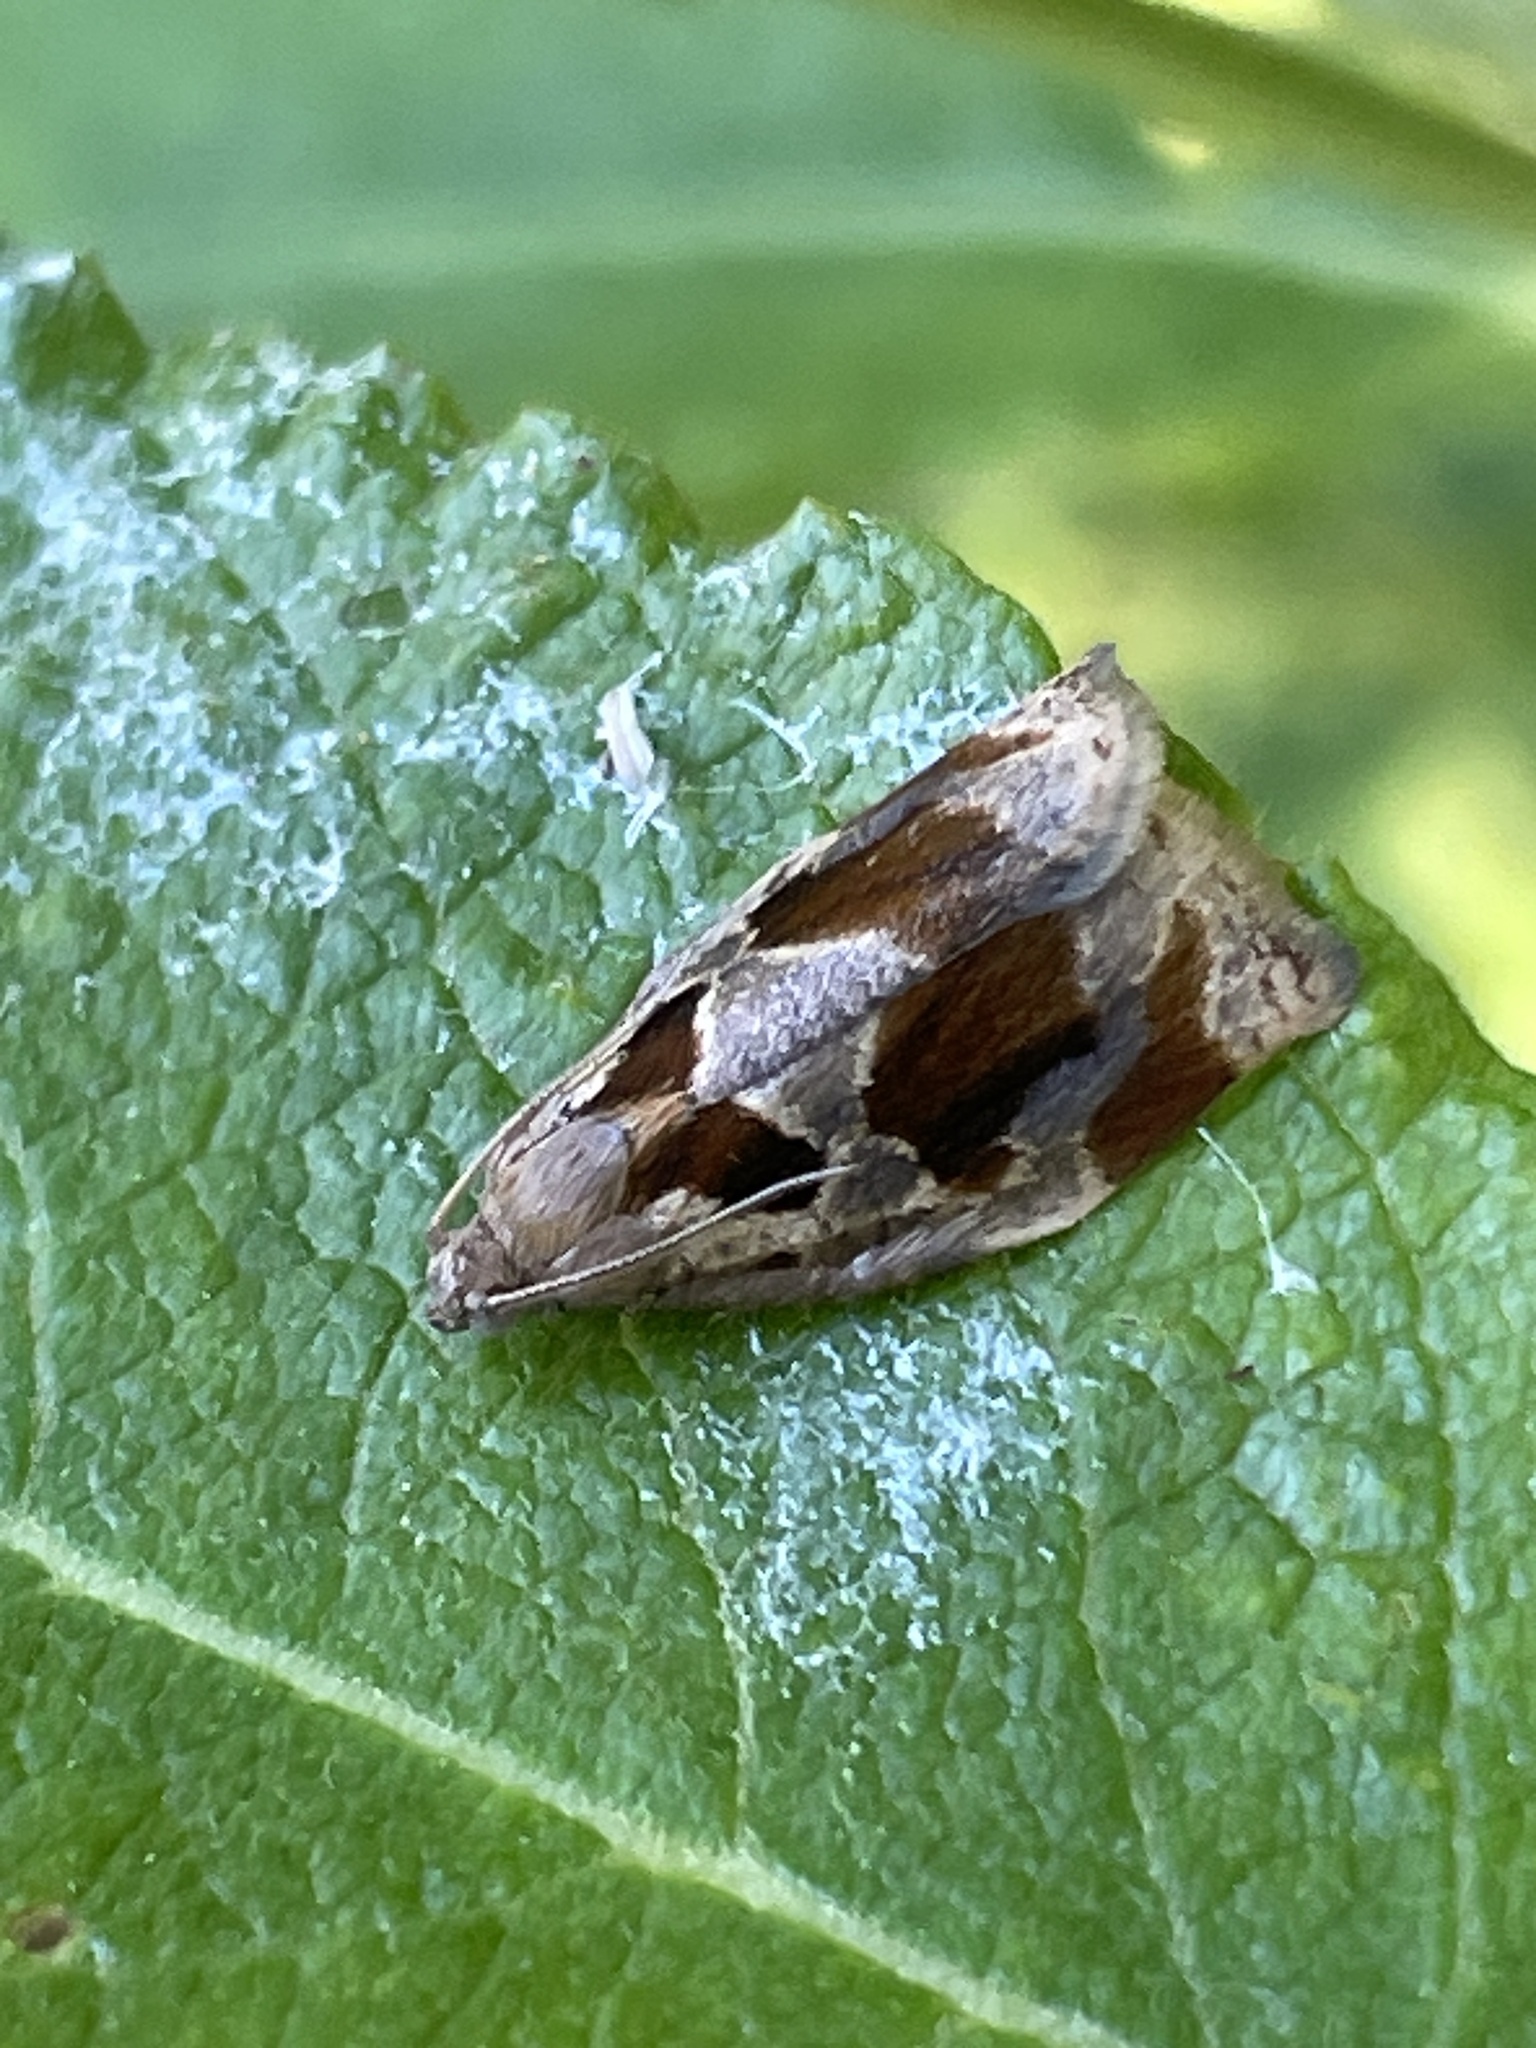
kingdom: Animalia
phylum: Arthropoda
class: Insecta
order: Lepidoptera
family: Tortricidae
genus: Archips
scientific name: Archips crataegana
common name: Brown oak tortrix
